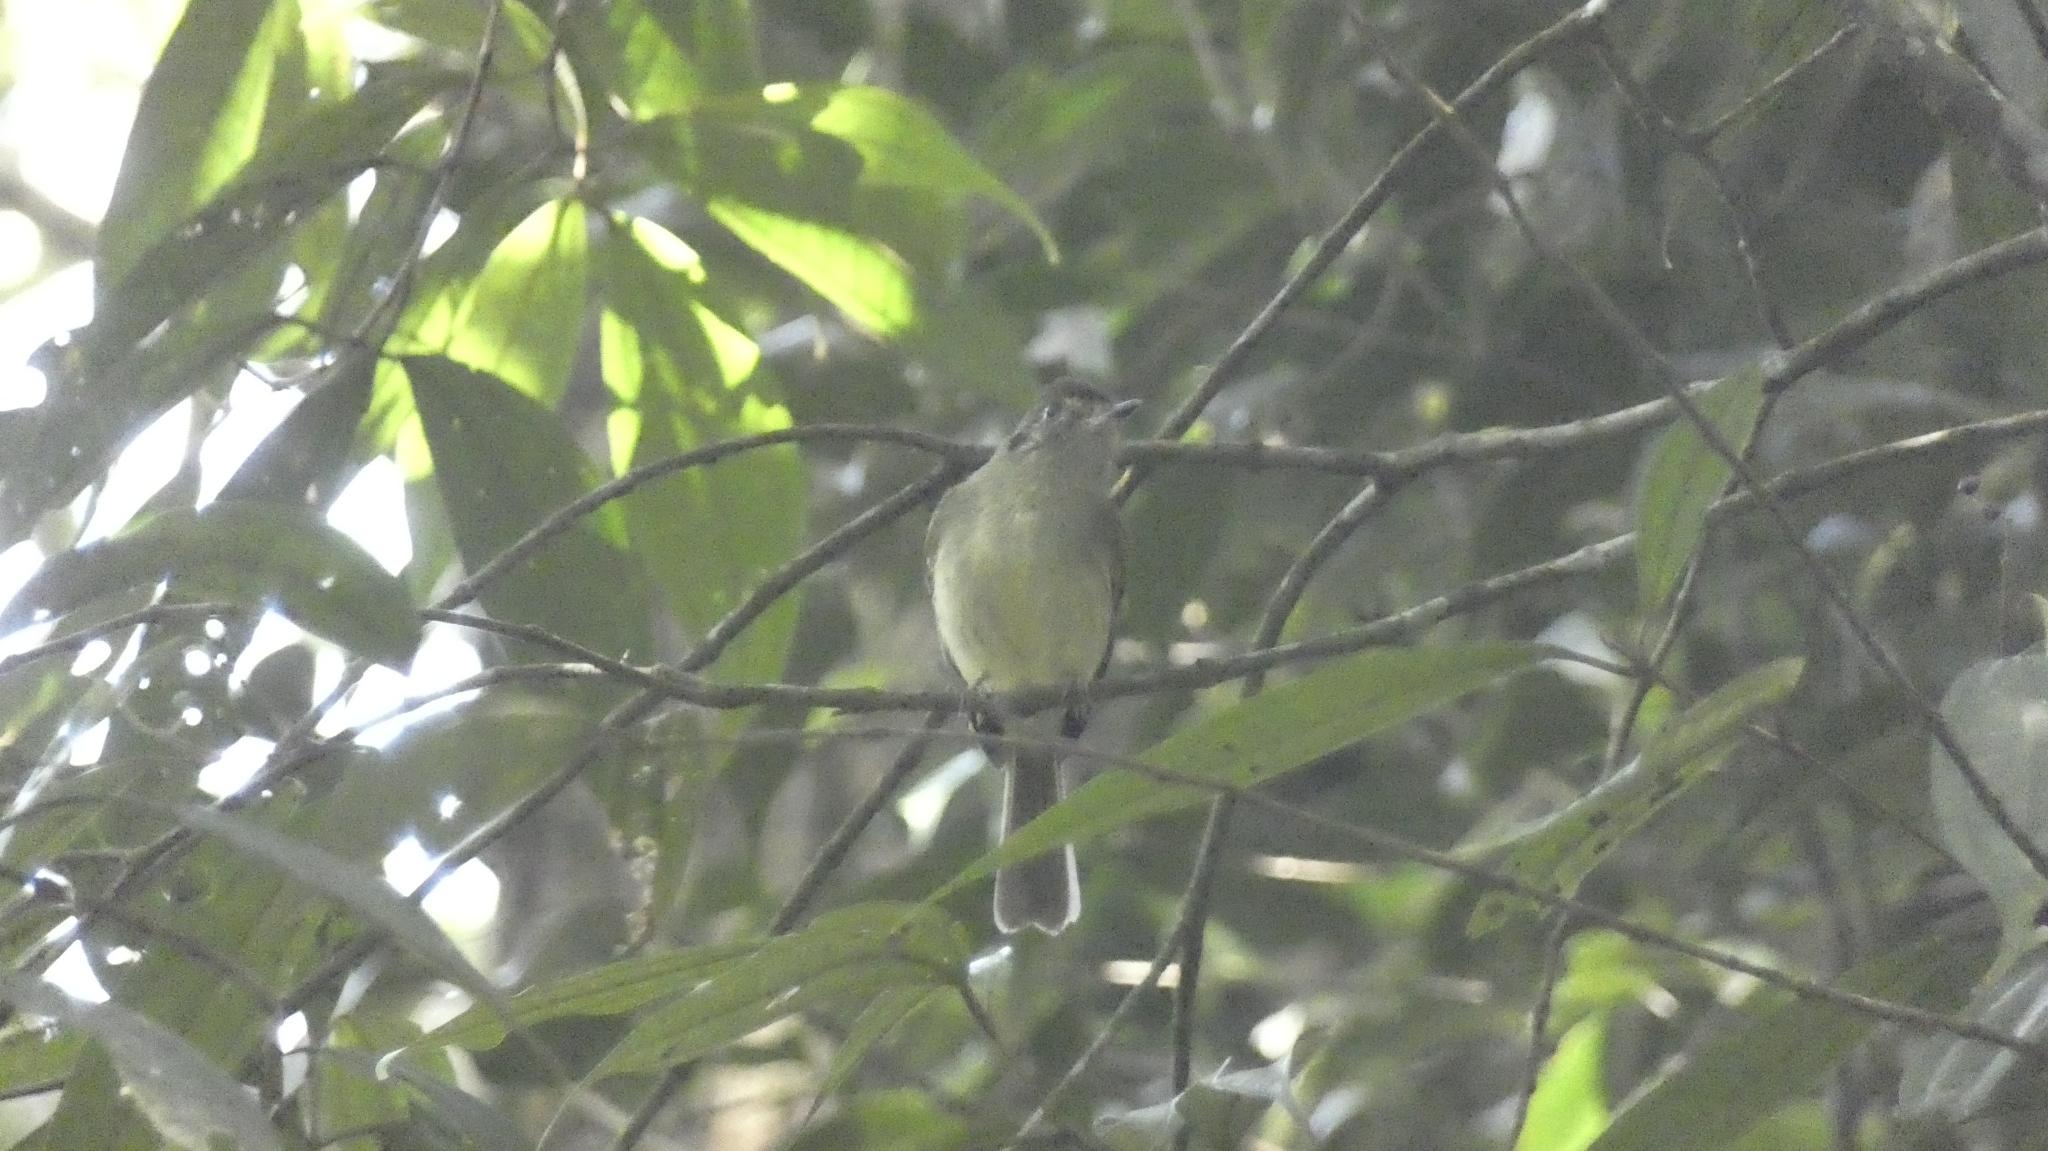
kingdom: Animalia
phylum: Chordata
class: Aves
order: Passeriformes
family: Tyrannidae
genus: Leptopogon
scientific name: Leptopogon amaurocephalus
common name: Sepia-capped flycatcher
